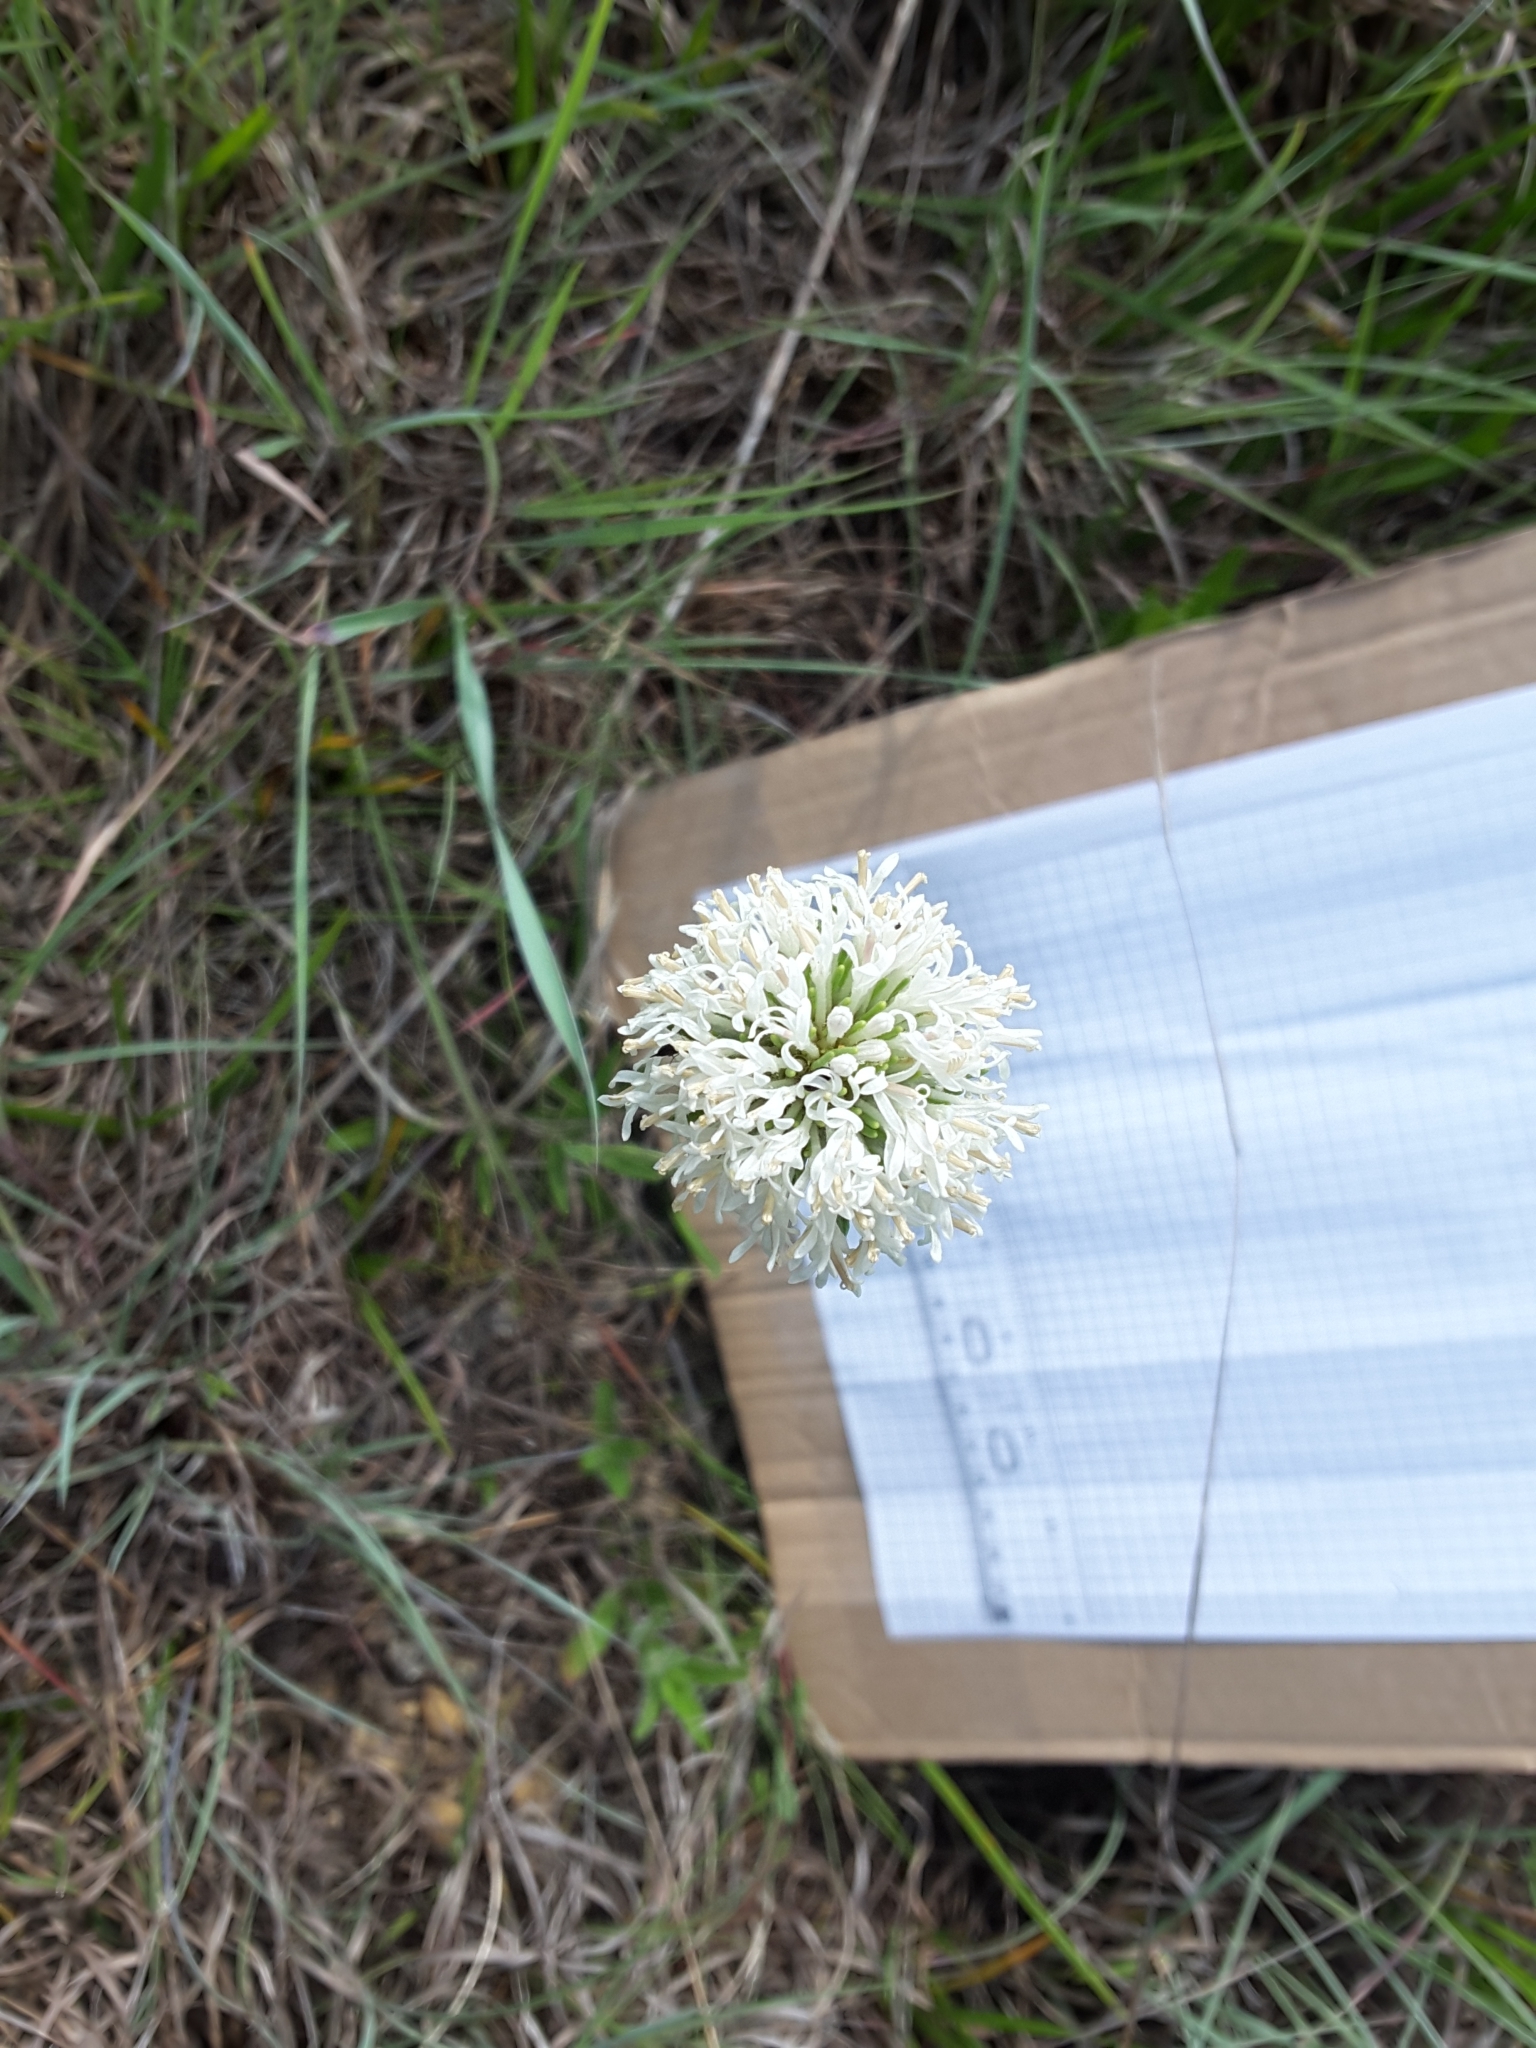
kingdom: Plantae
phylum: Tracheophyta
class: Magnoliopsida
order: Asterales
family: Asteraceae
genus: Marshallia
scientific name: Marshallia caespitosa
